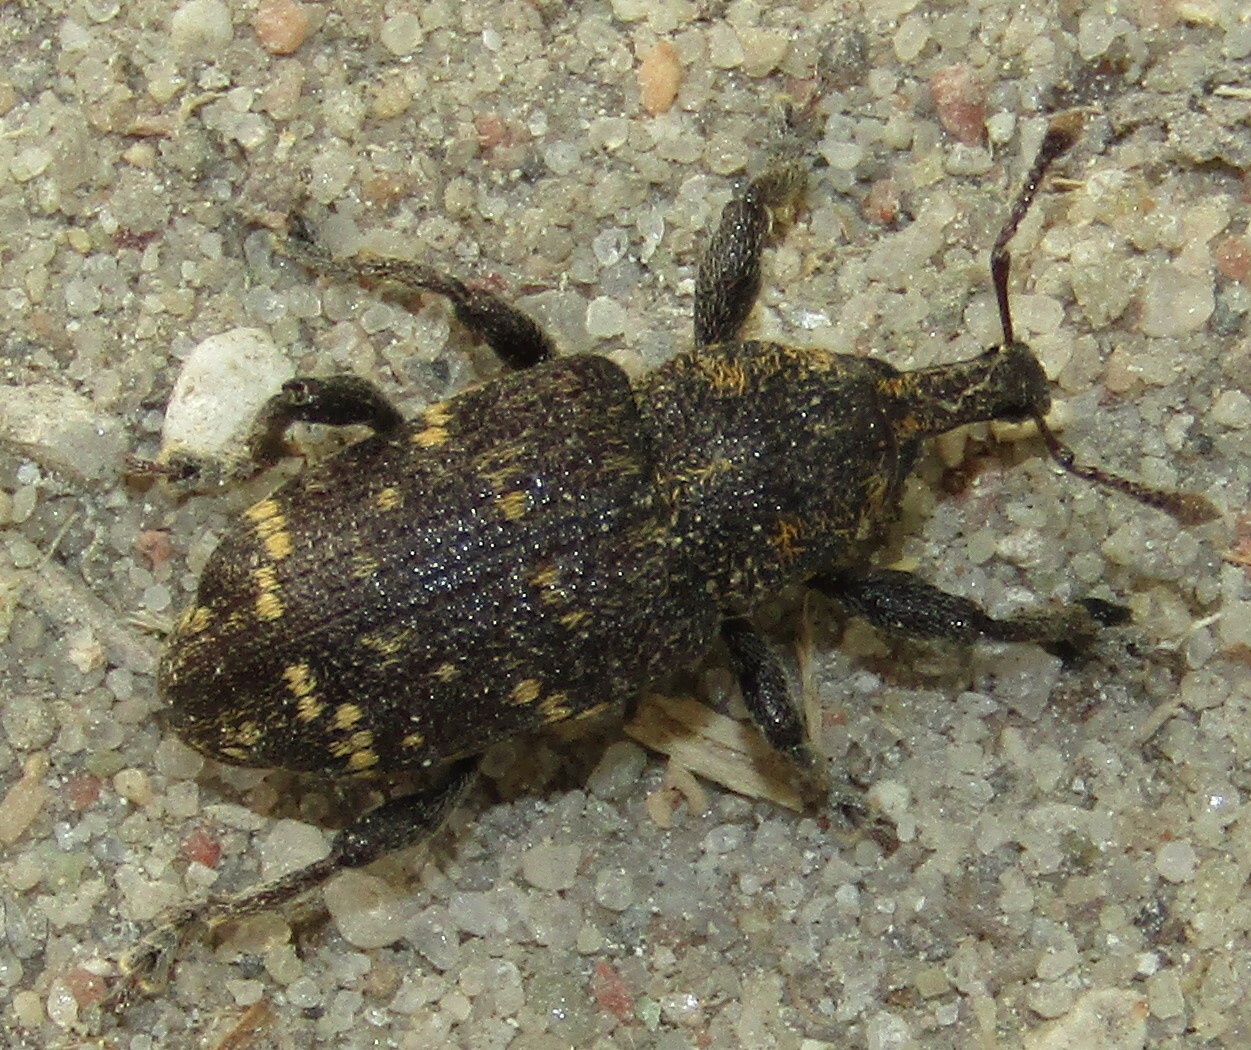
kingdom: Animalia
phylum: Arthropoda
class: Insecta
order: Coleoptera
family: Curculionidae
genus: Hylobius
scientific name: Hylobius abietis
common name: Large pine weevil
